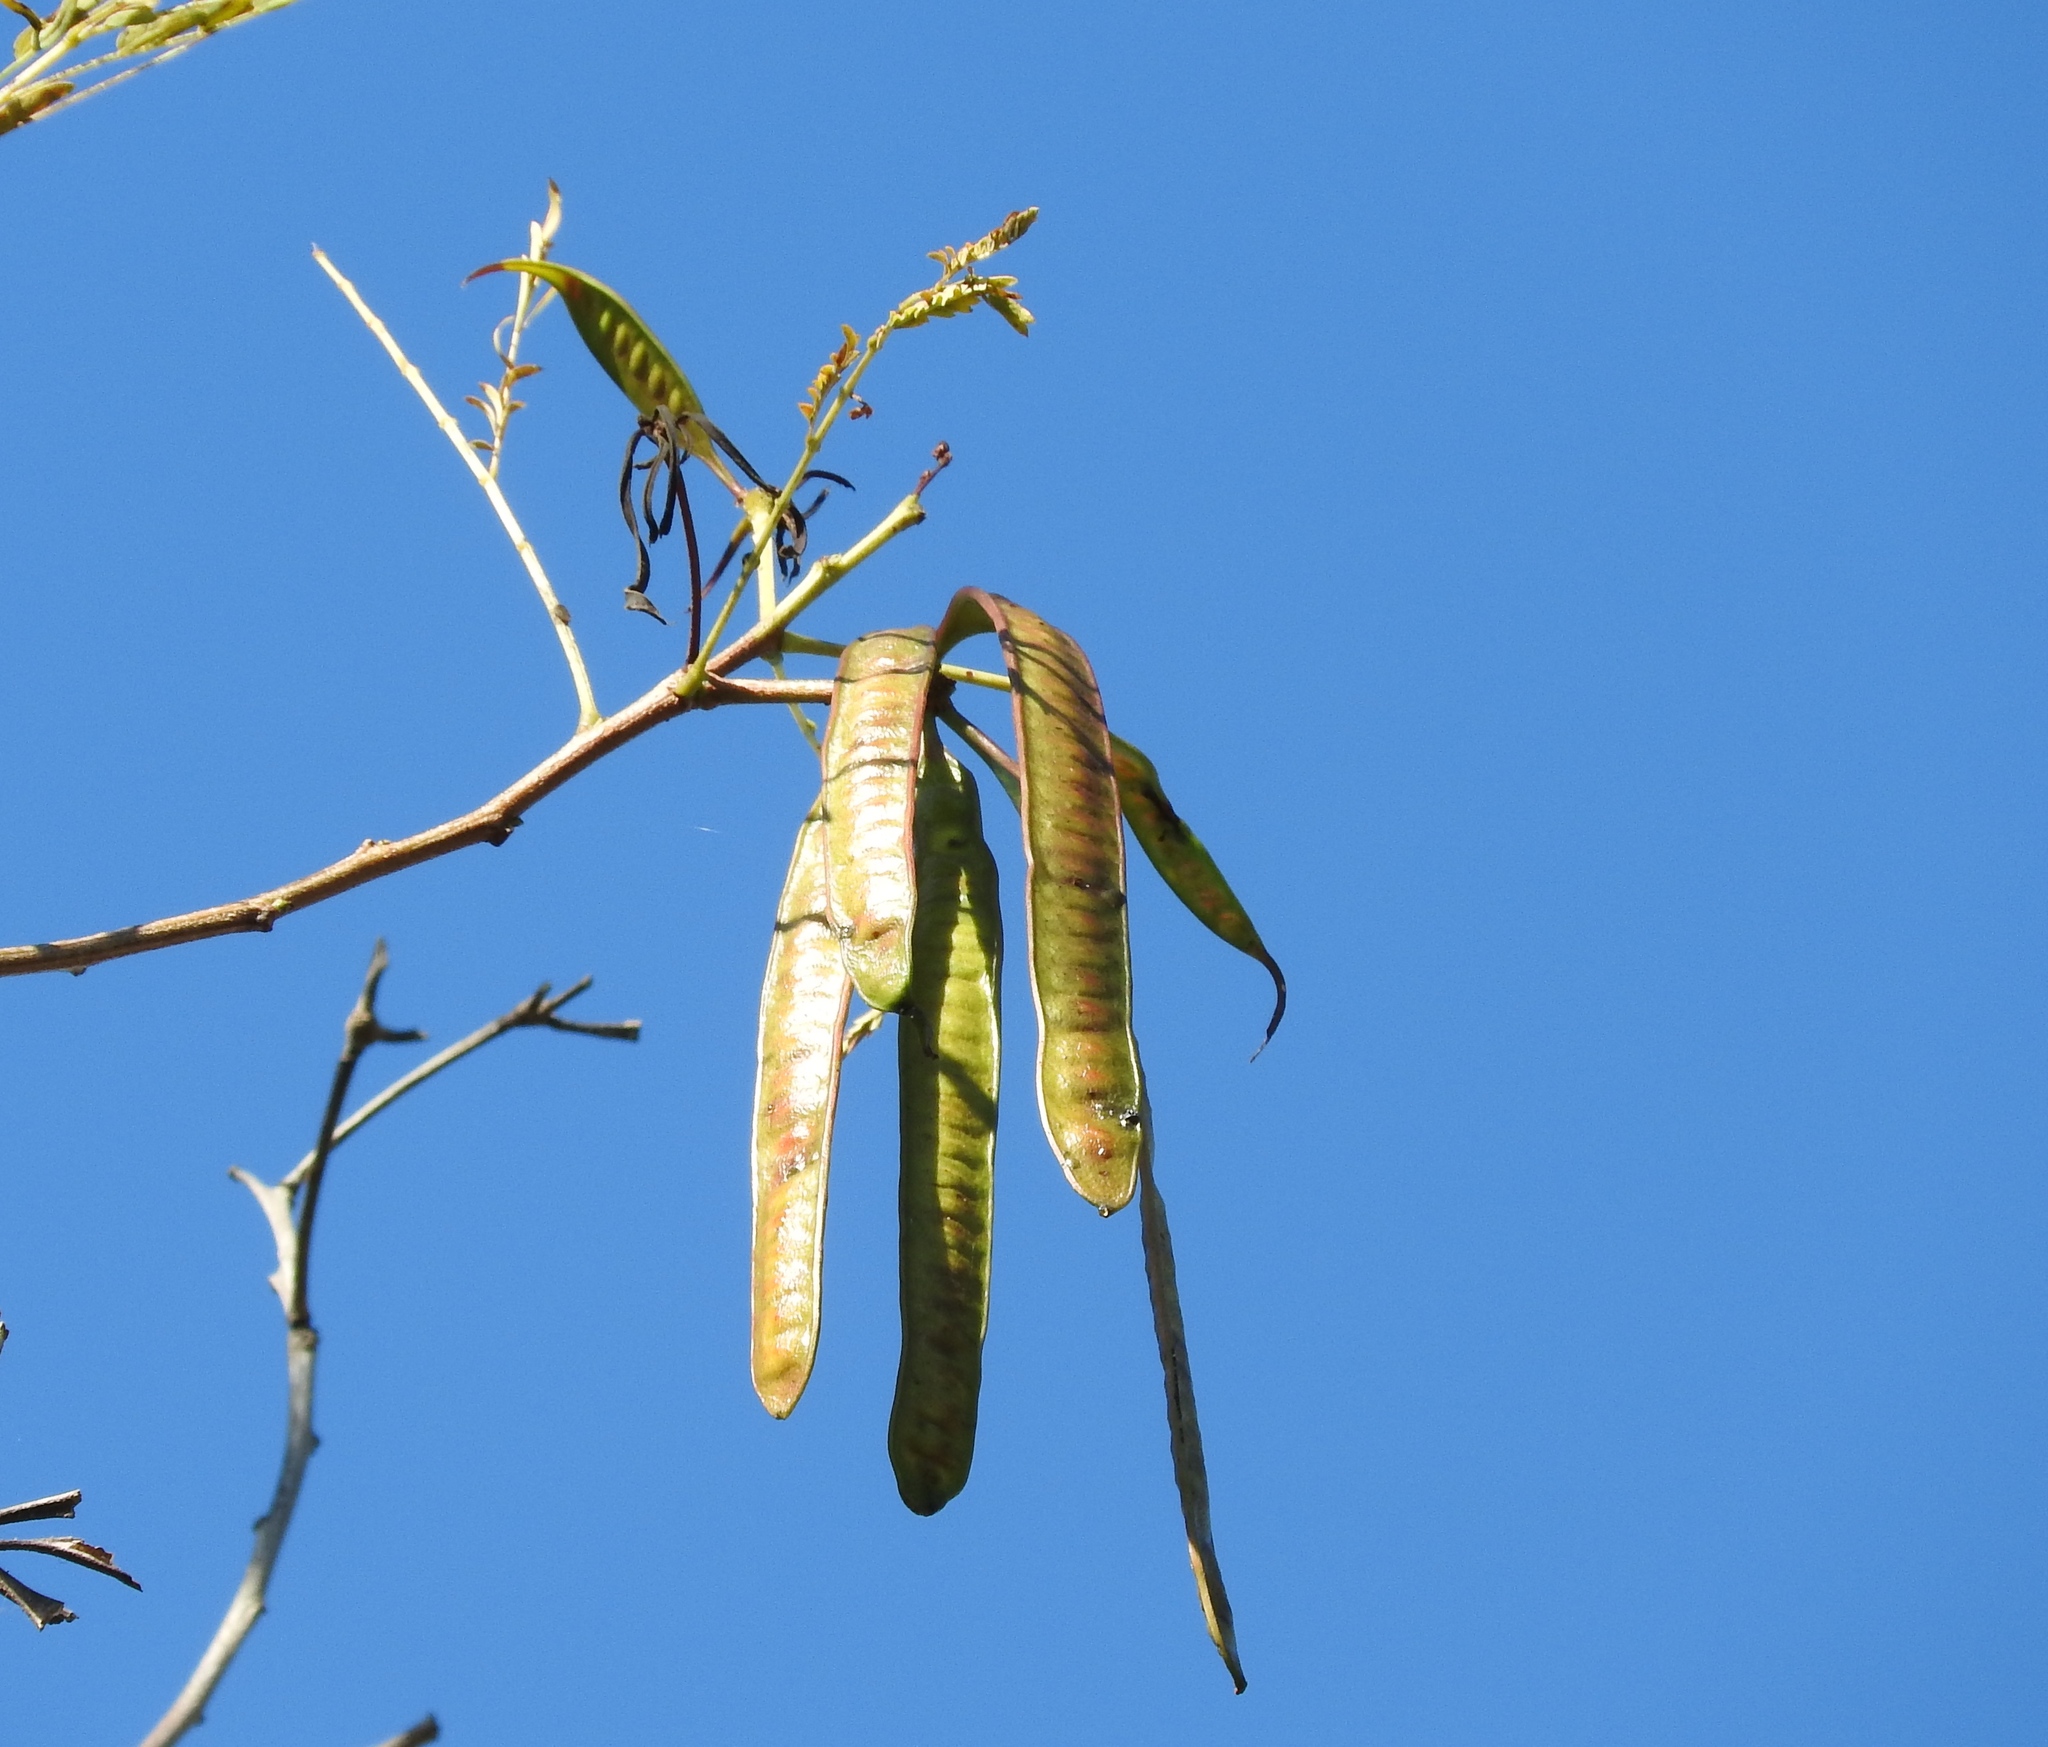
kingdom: Plantae
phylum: Tracheophyta
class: Magnoliopsida
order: Fabales
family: Fabaceae
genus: Leucaena
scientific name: Leucaena leucocephala
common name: White leadtree
